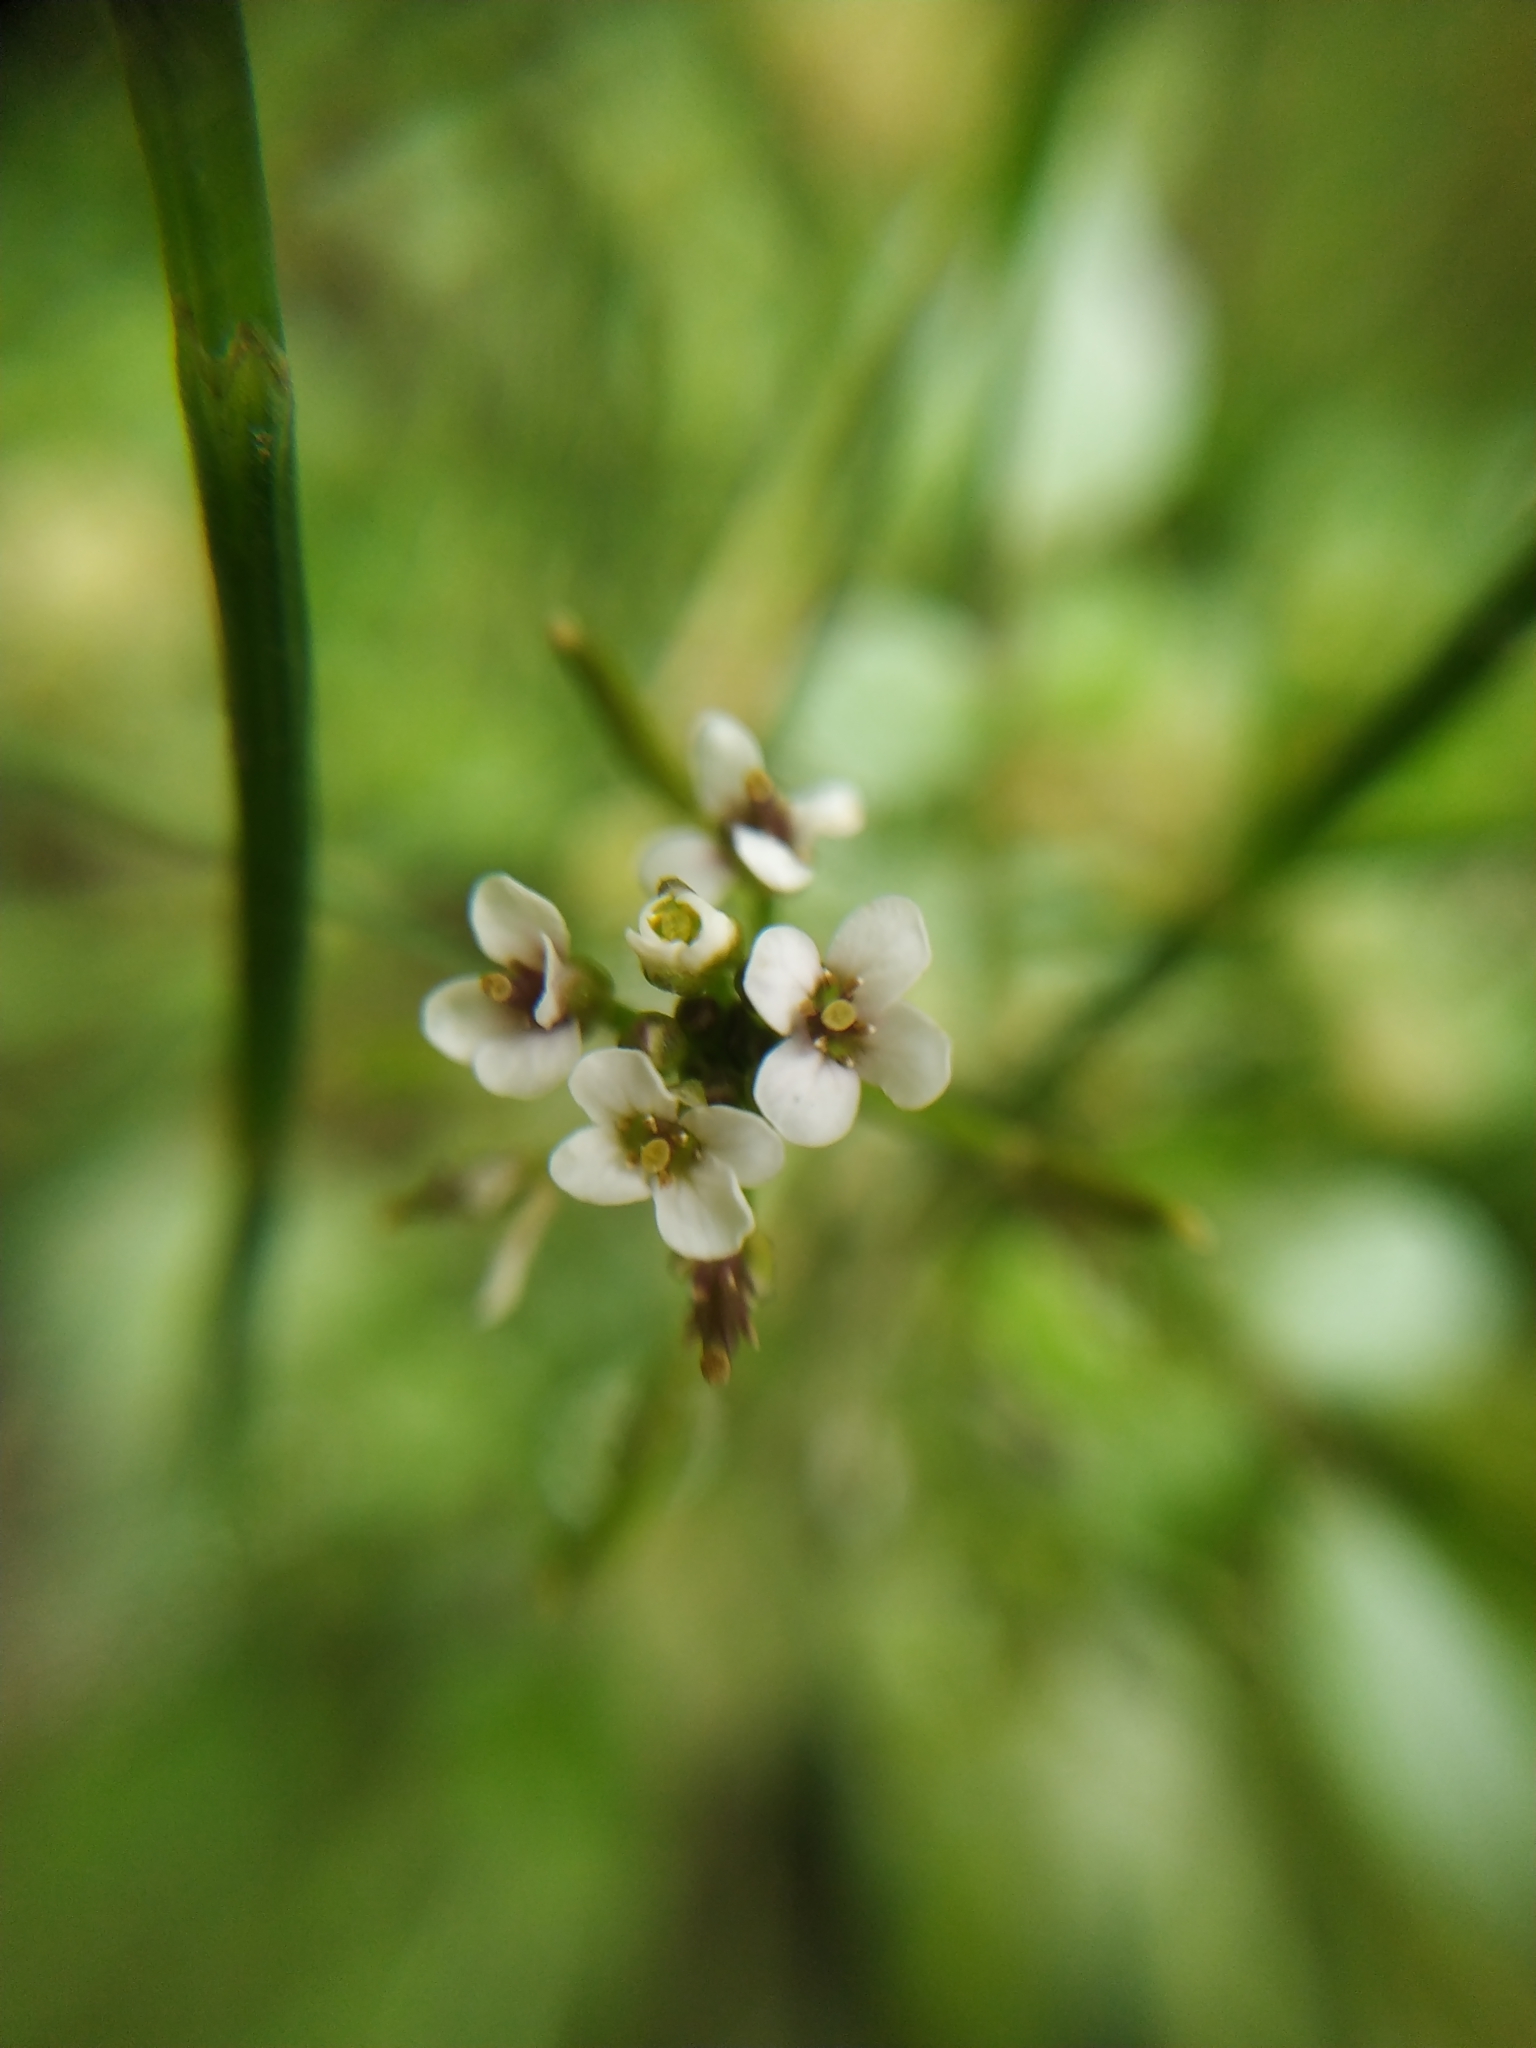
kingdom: Plantae
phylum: Tracheophyta
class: Magnoliopsida
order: Brassicales
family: Brassicaceae
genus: Nasturtium
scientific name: Nasturtium officinale
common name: Watercress
